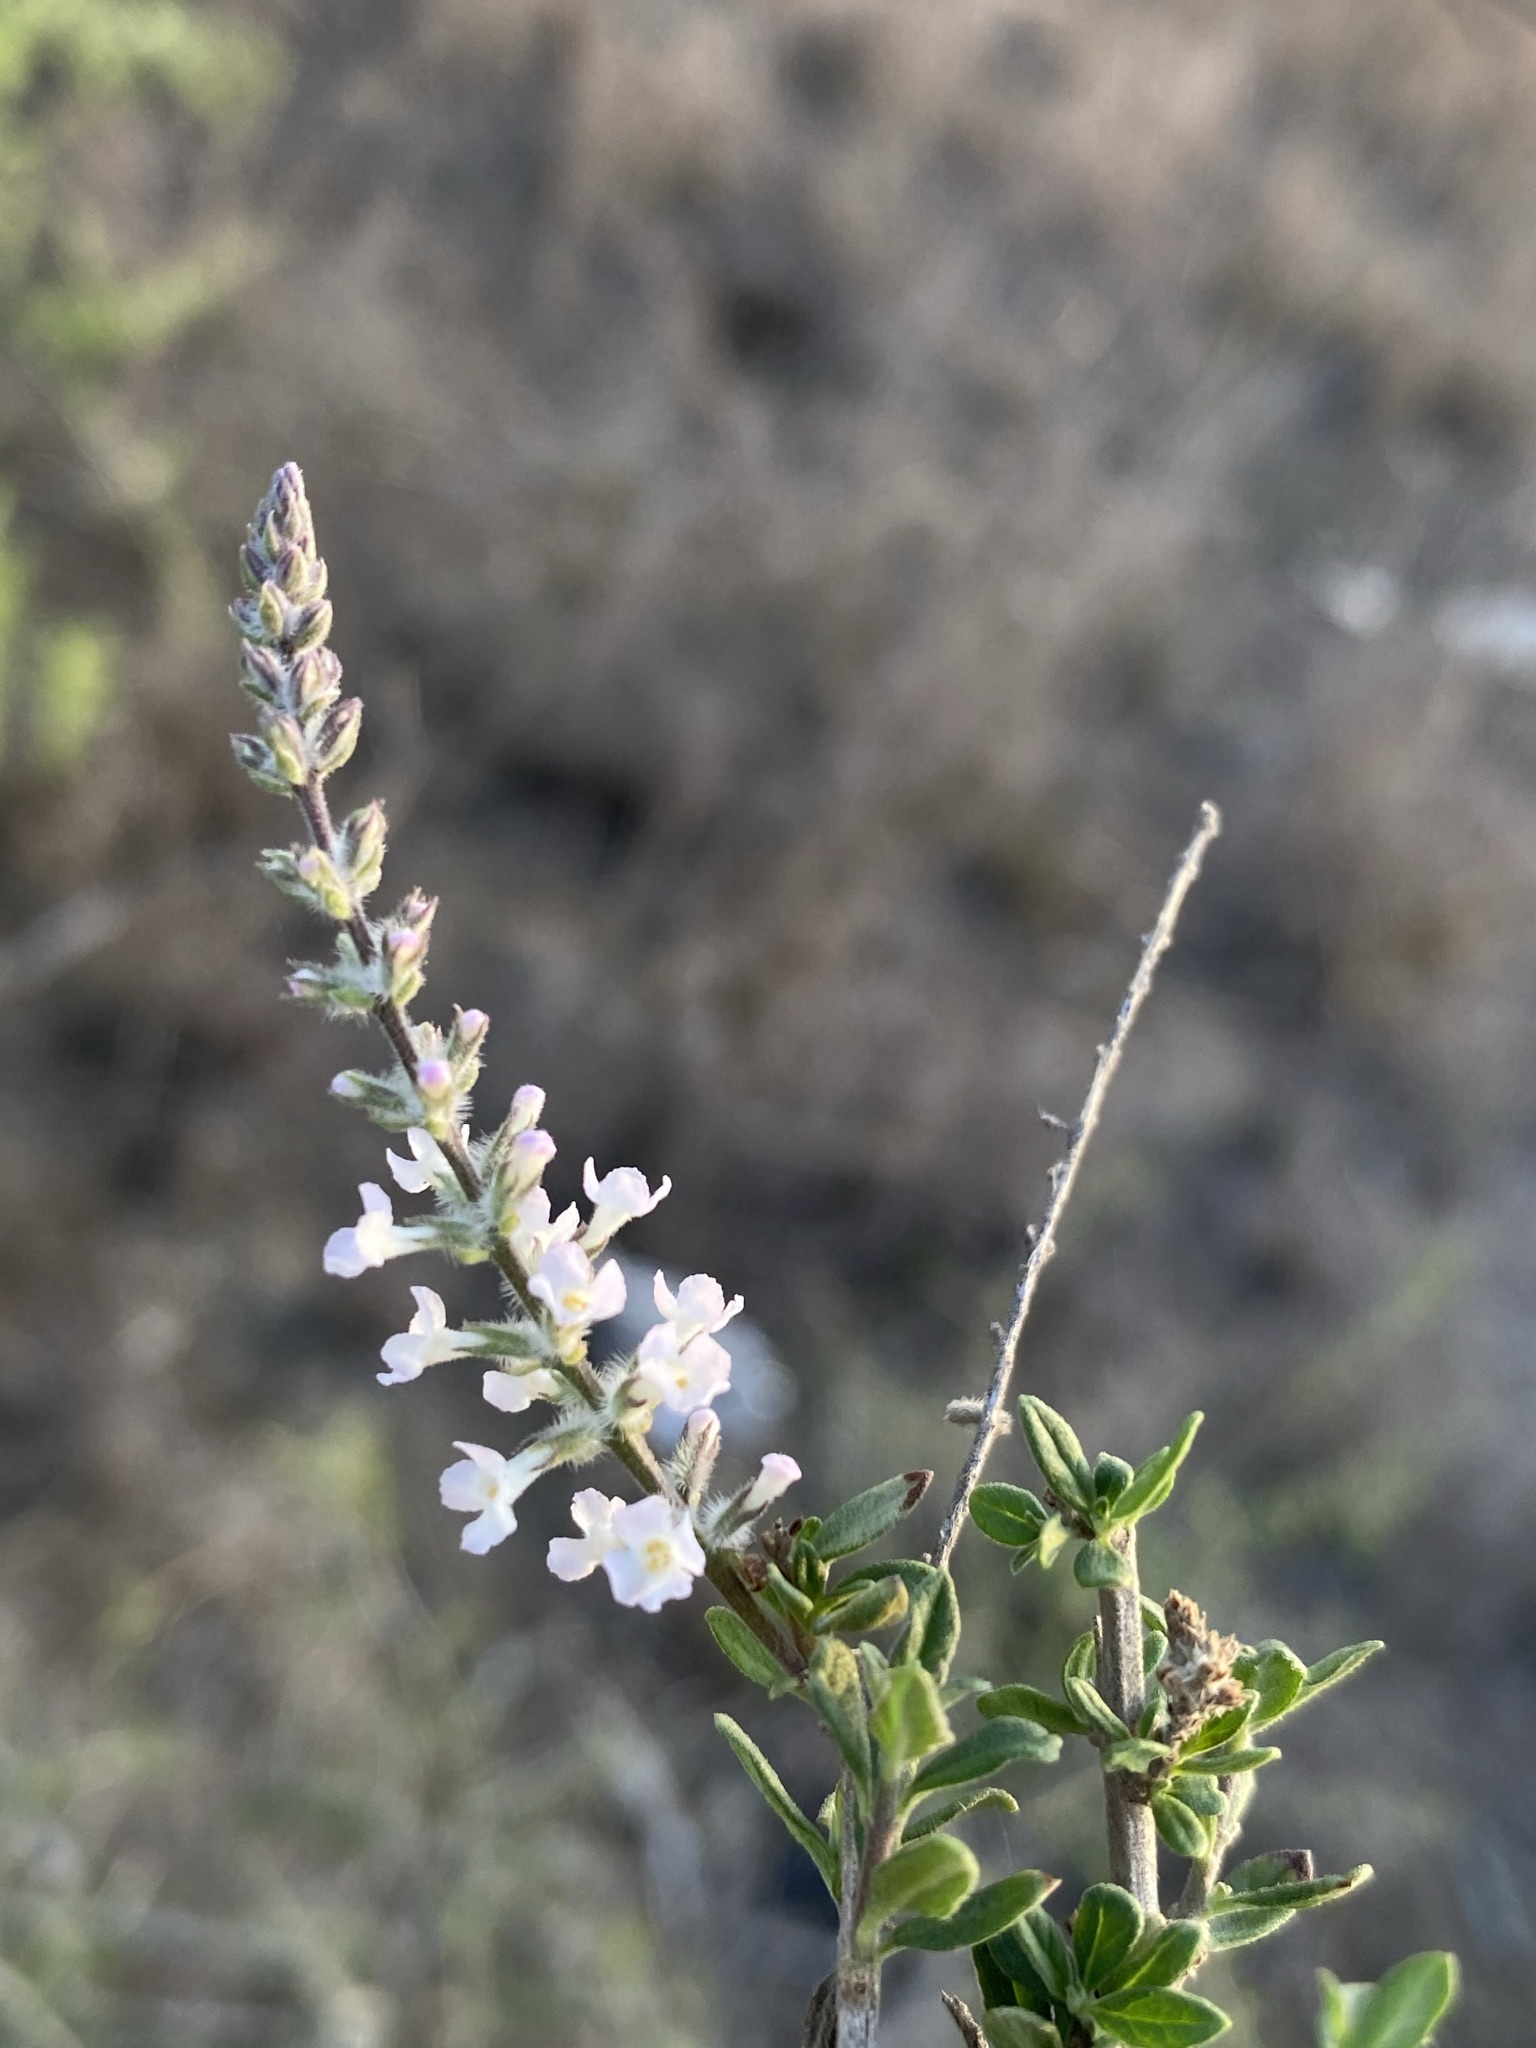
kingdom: Plantae
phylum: Tracheophyta
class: Magnoliopsida
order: Lamiales
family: Verbenaceae
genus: Aloysia
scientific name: Aloysia gratissima
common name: Common bee-brush
